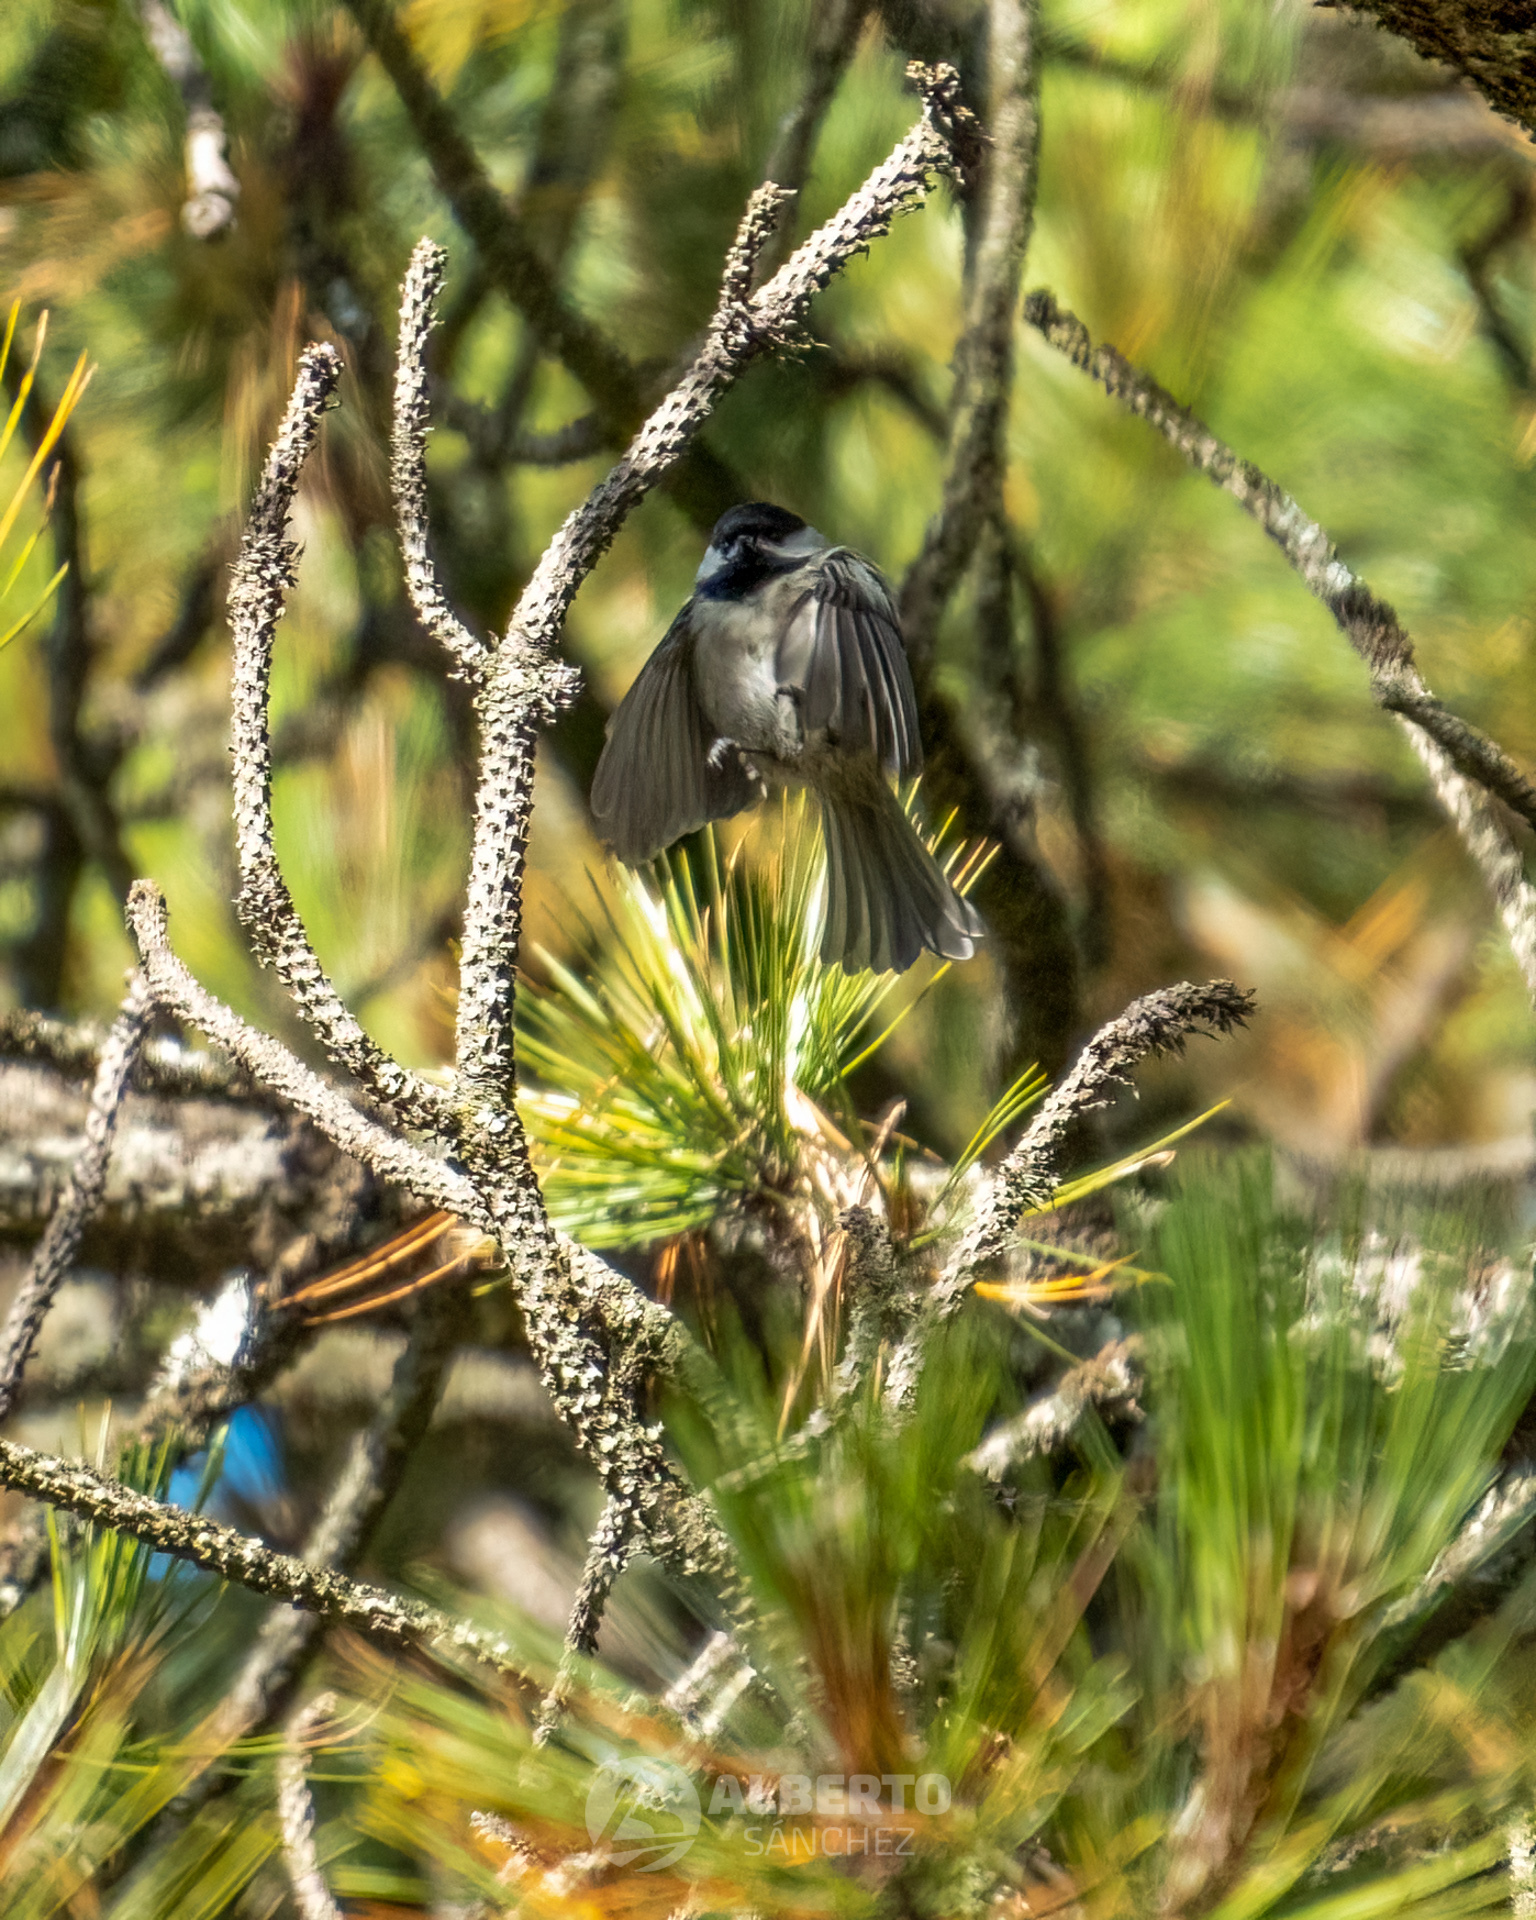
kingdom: Animalia
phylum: Chordata
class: Aves
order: Passeriformes
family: Paridae
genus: Poecile
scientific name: Poecile sclateri
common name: Mexican chickadee
